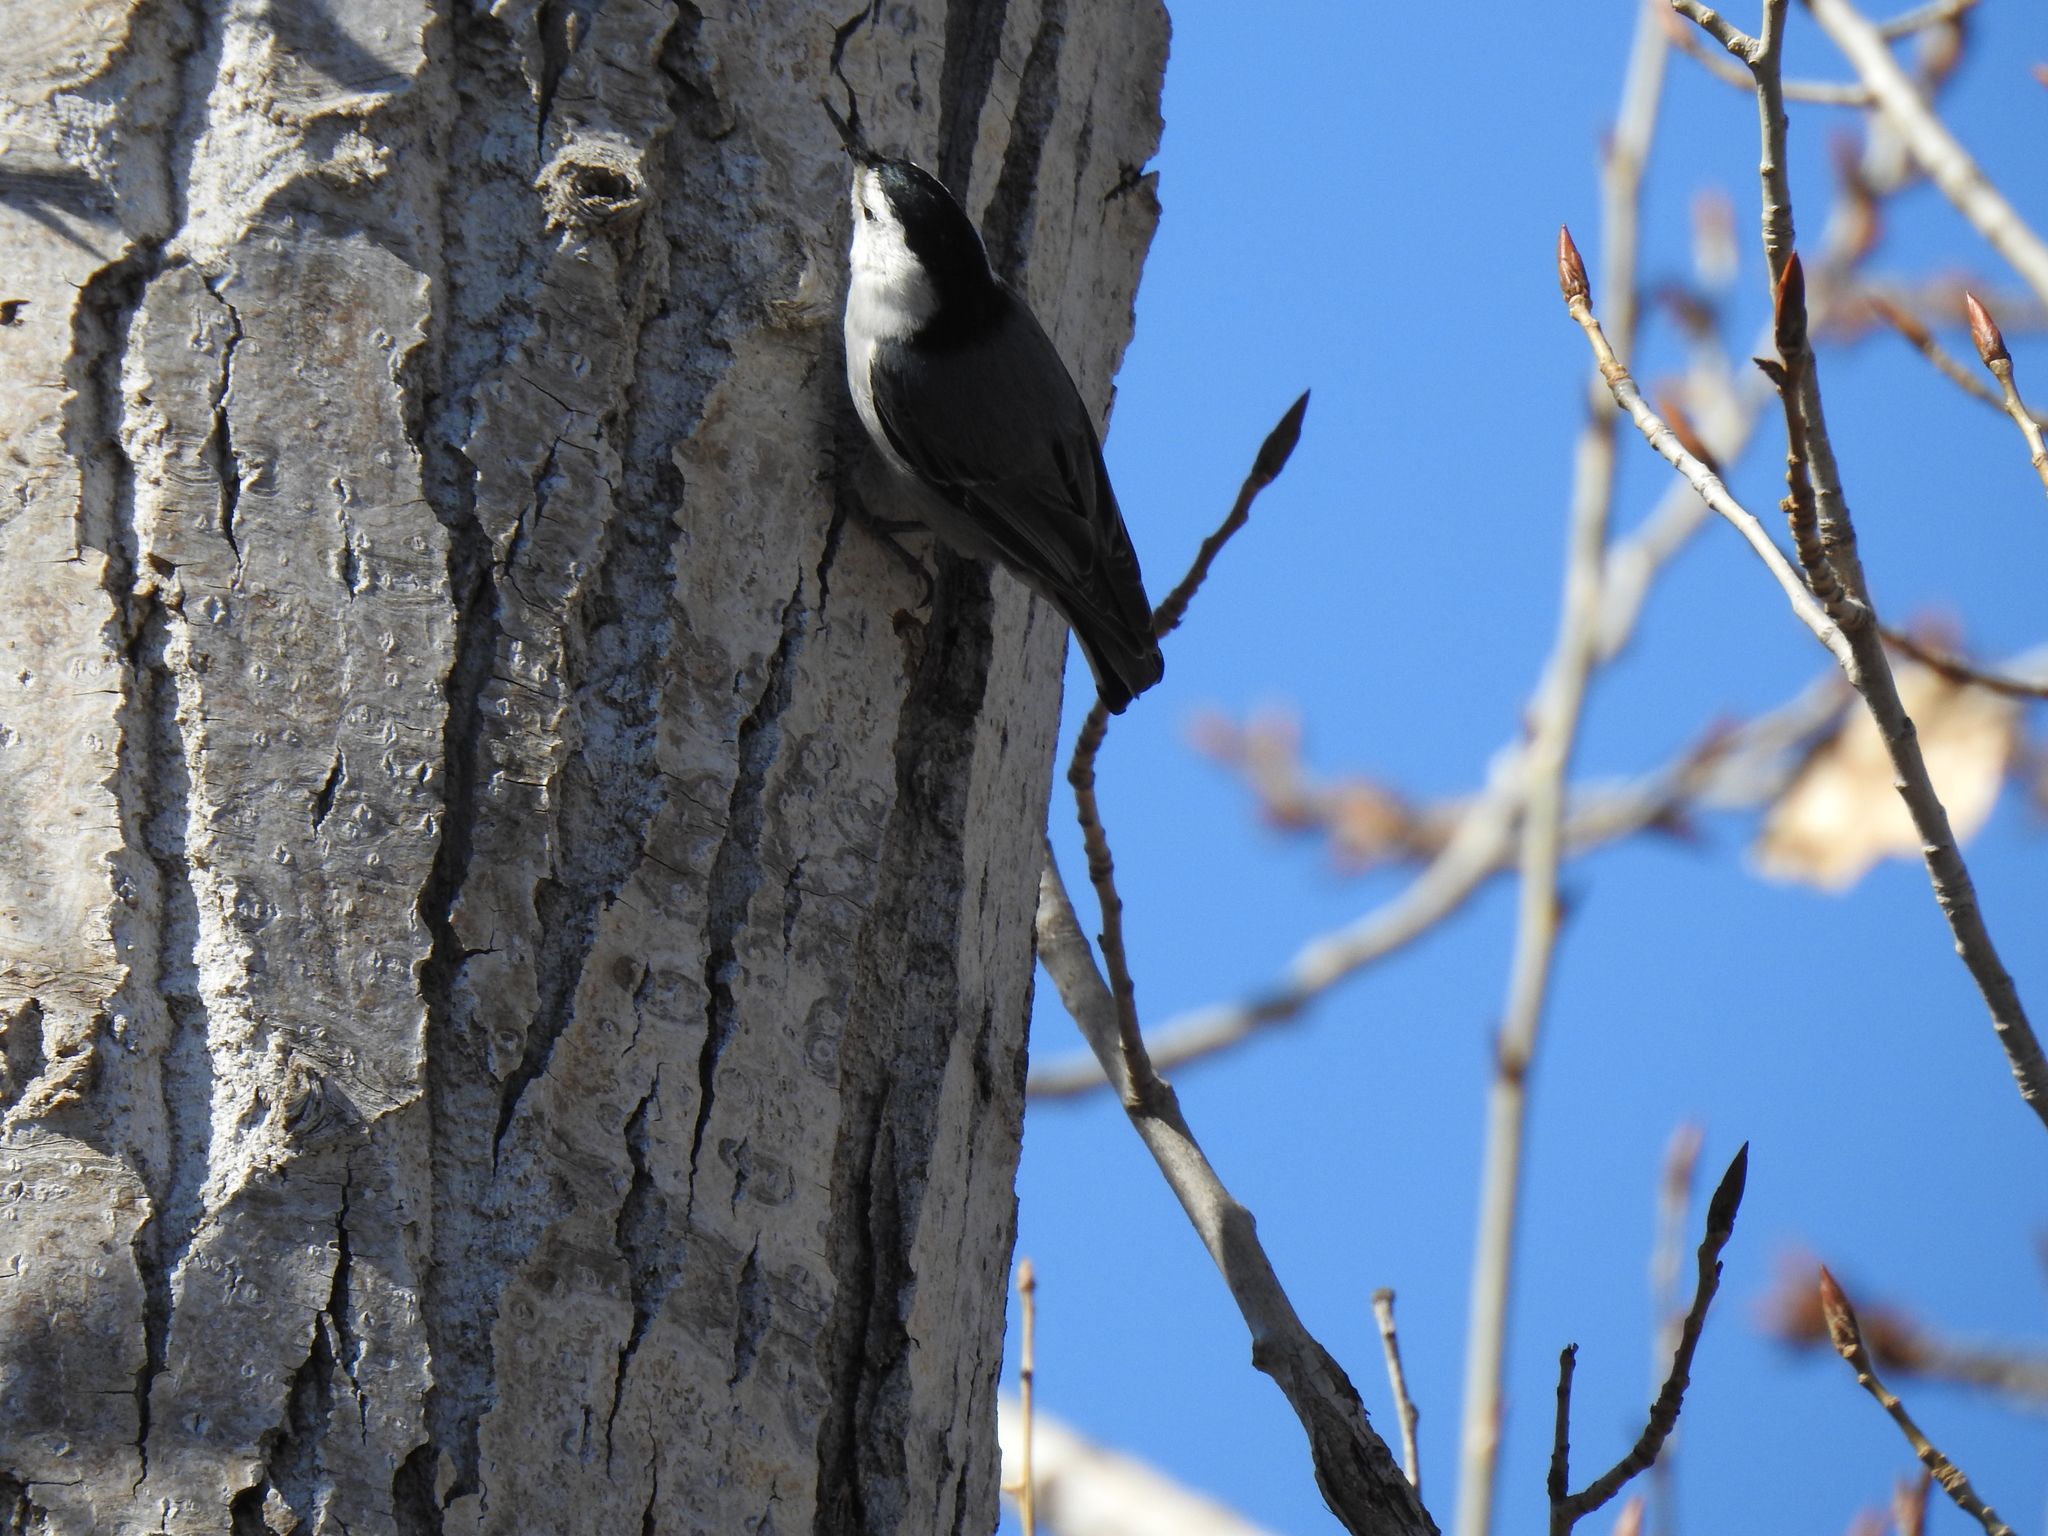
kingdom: Animalia
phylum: Chordata
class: Aves
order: Passeriformes
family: Sittidae
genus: Sitta
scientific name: Sitta carolinensis
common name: White-breasted nuthatch
